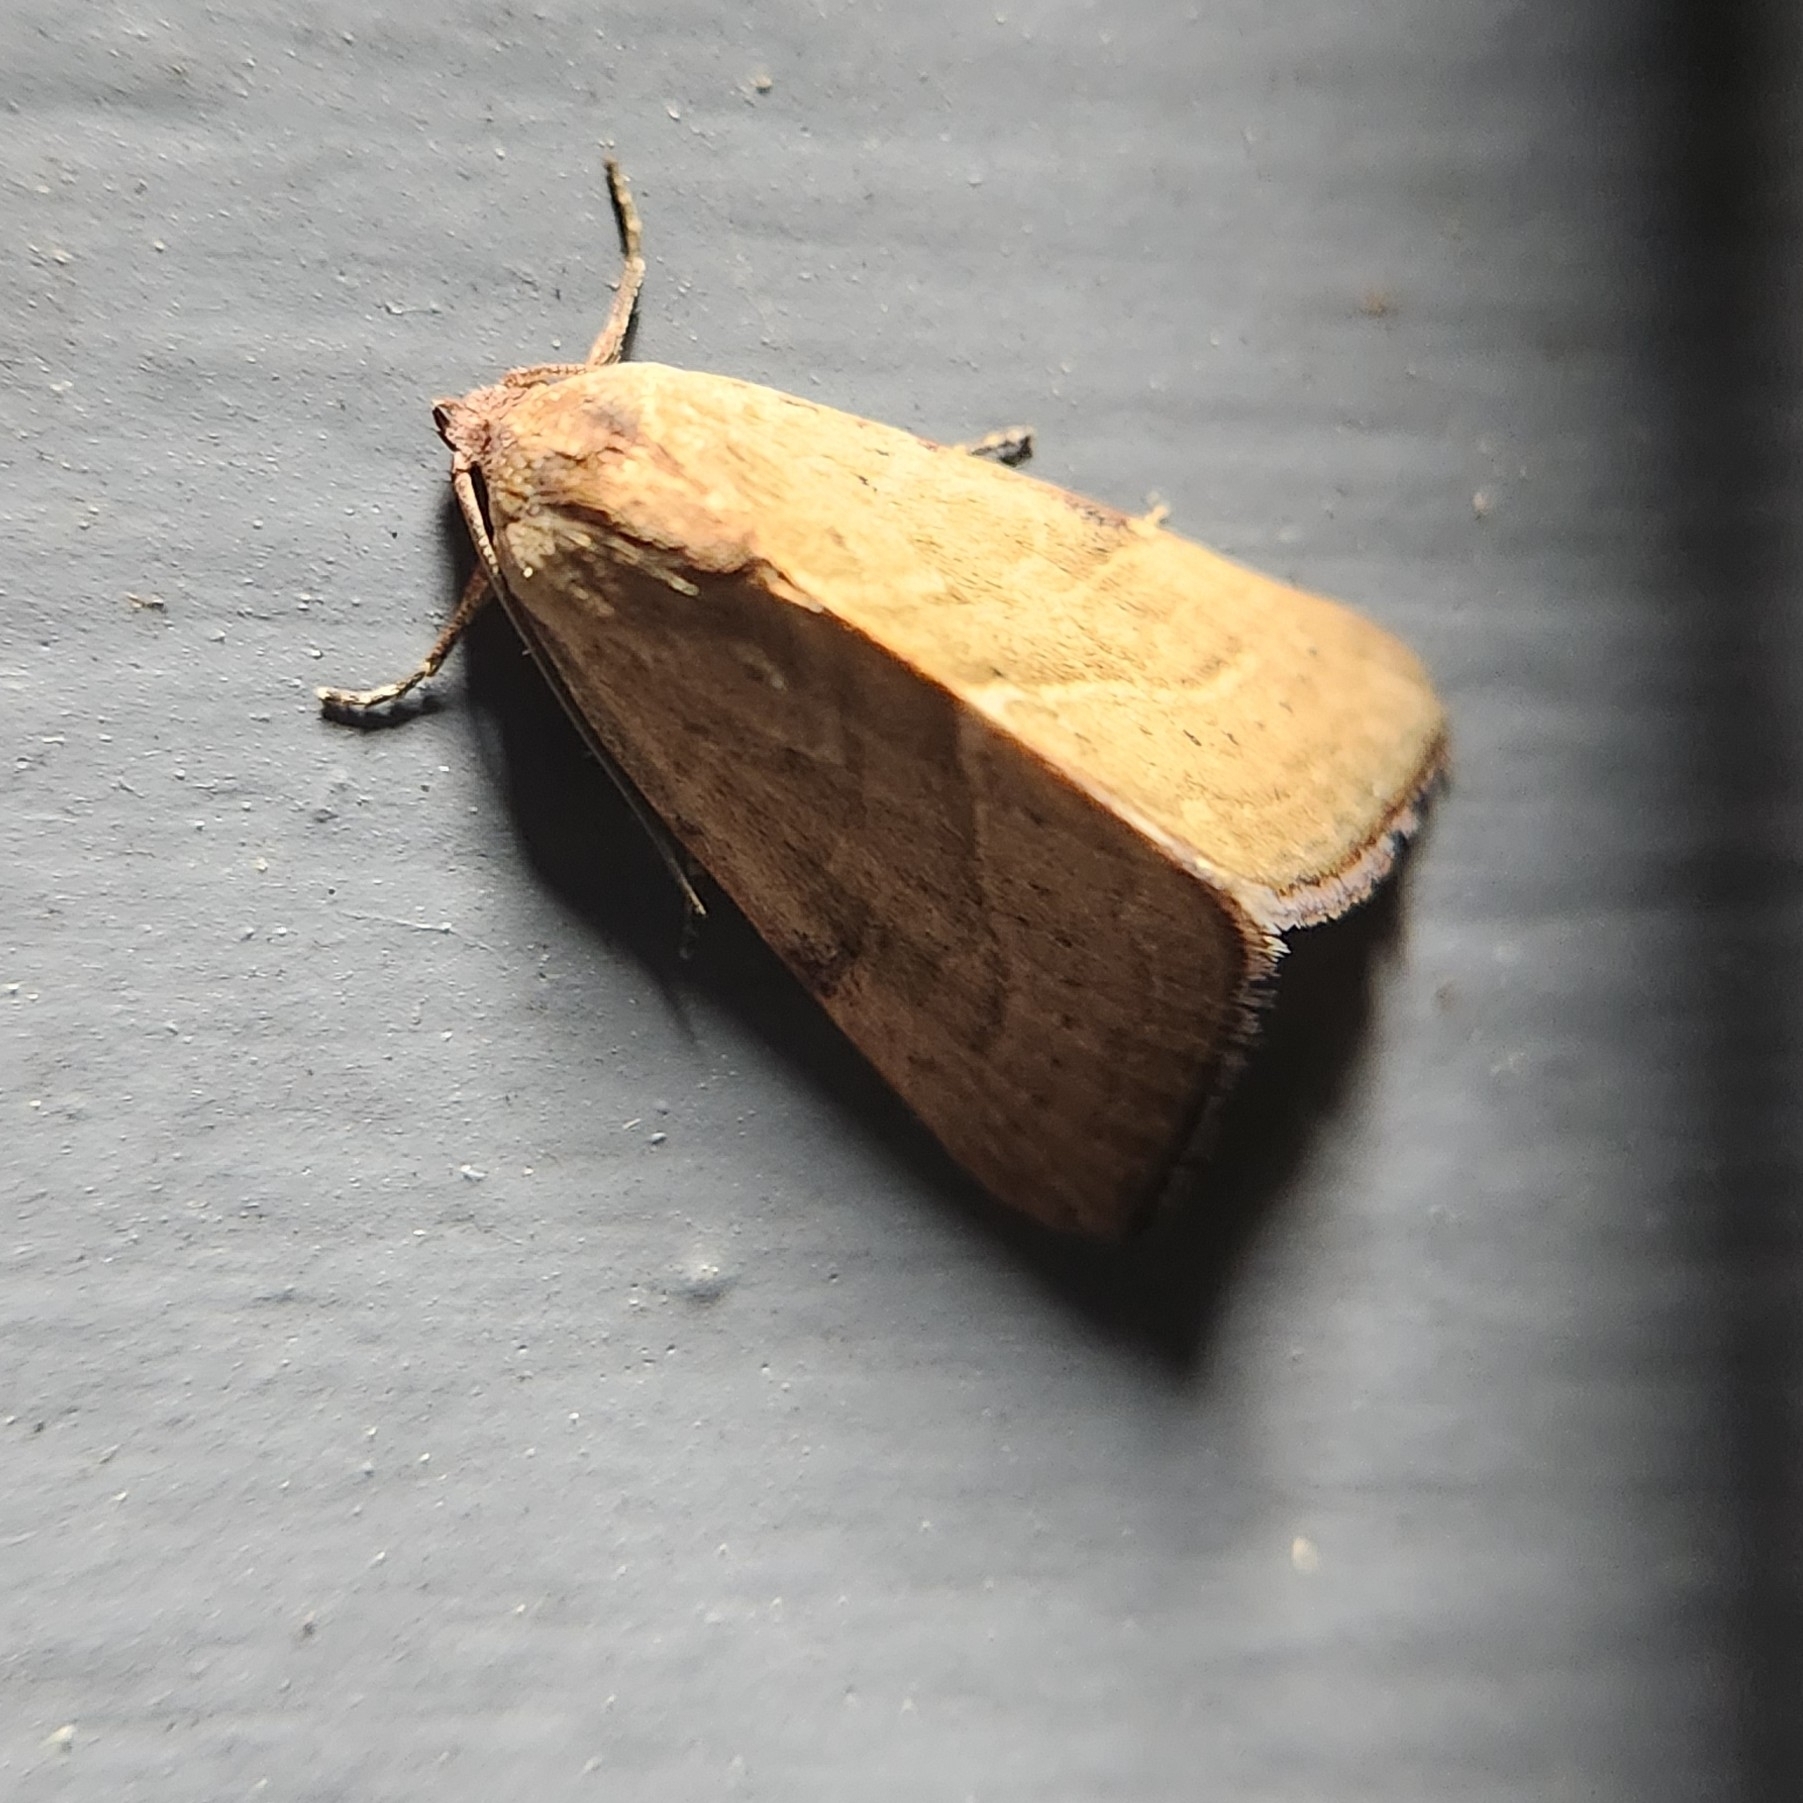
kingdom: Animalia
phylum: Arthropoda
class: Insecta
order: Lepidoptera
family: Noctuidae
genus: Galgula
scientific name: Galgula partita
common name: Wedgeling
